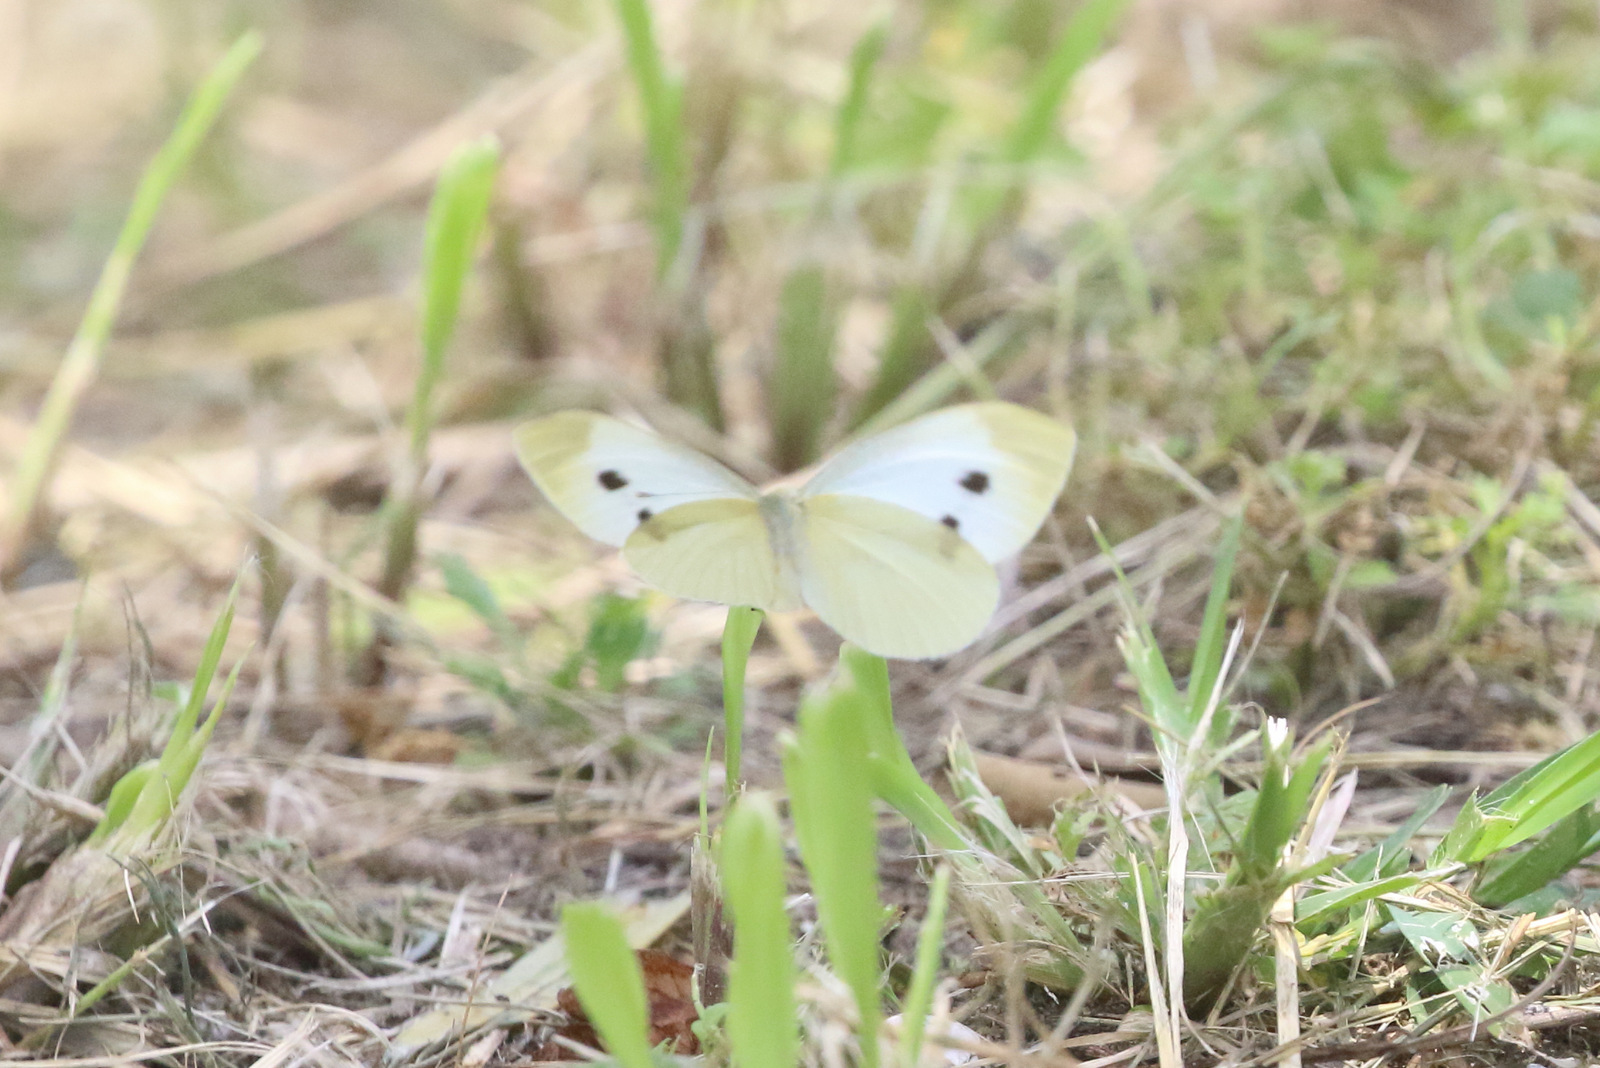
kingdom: Animalia
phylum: Arthropoda
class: Insecta
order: Lepidoptera
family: Pieridae
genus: Pieris
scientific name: Pieris rapae
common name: Small white
